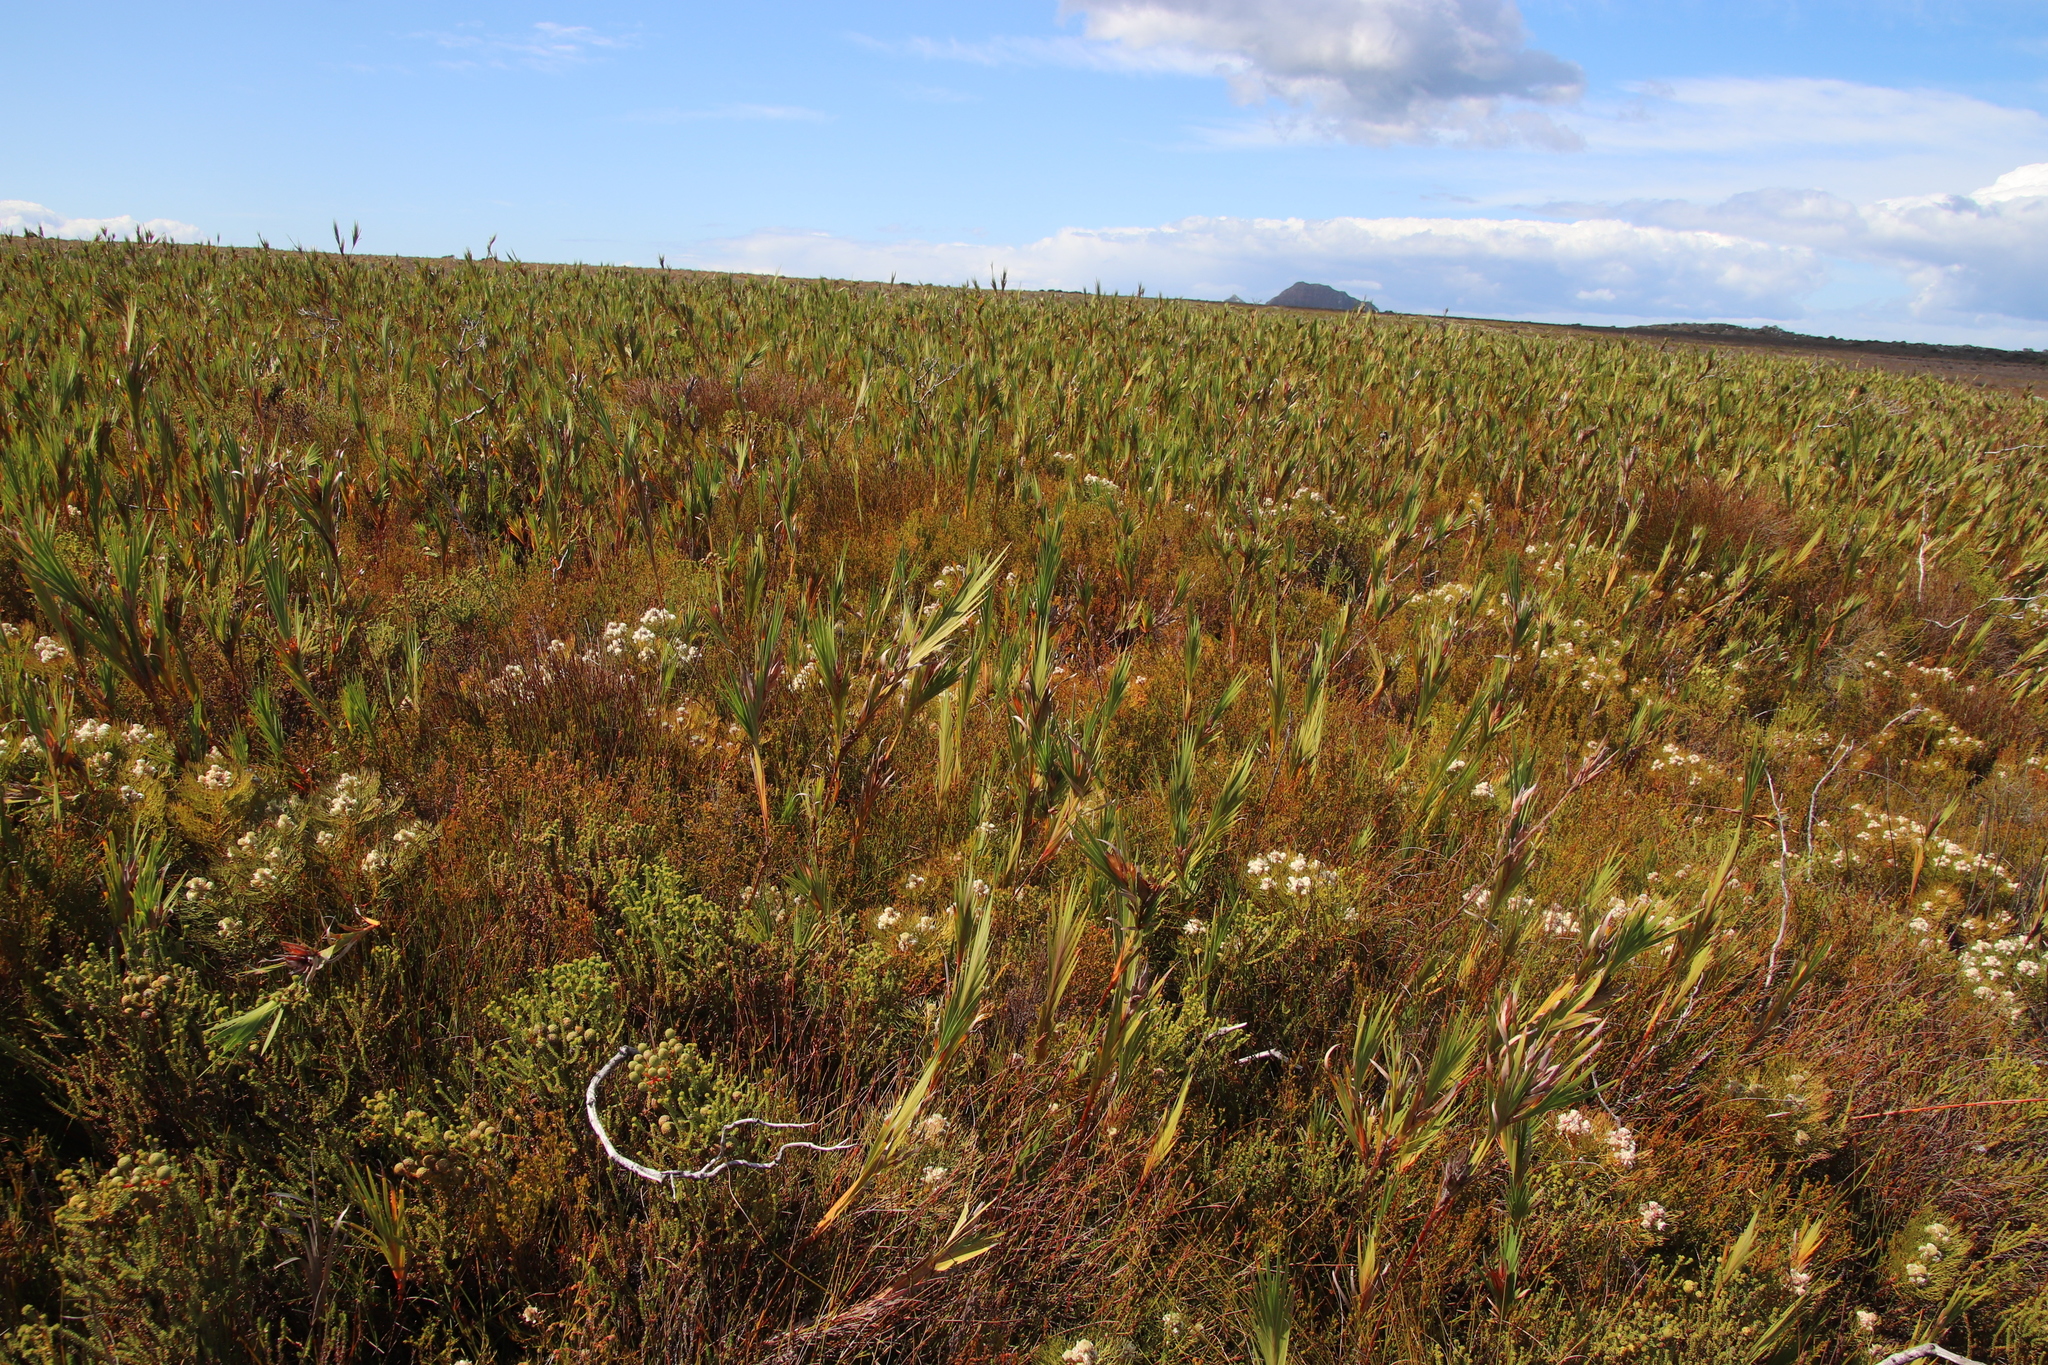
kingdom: Plantae
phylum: Tracheophyta
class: Liliopsida
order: Asparagales
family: Iridaceae
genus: Witsenia
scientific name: Witsenia maura
